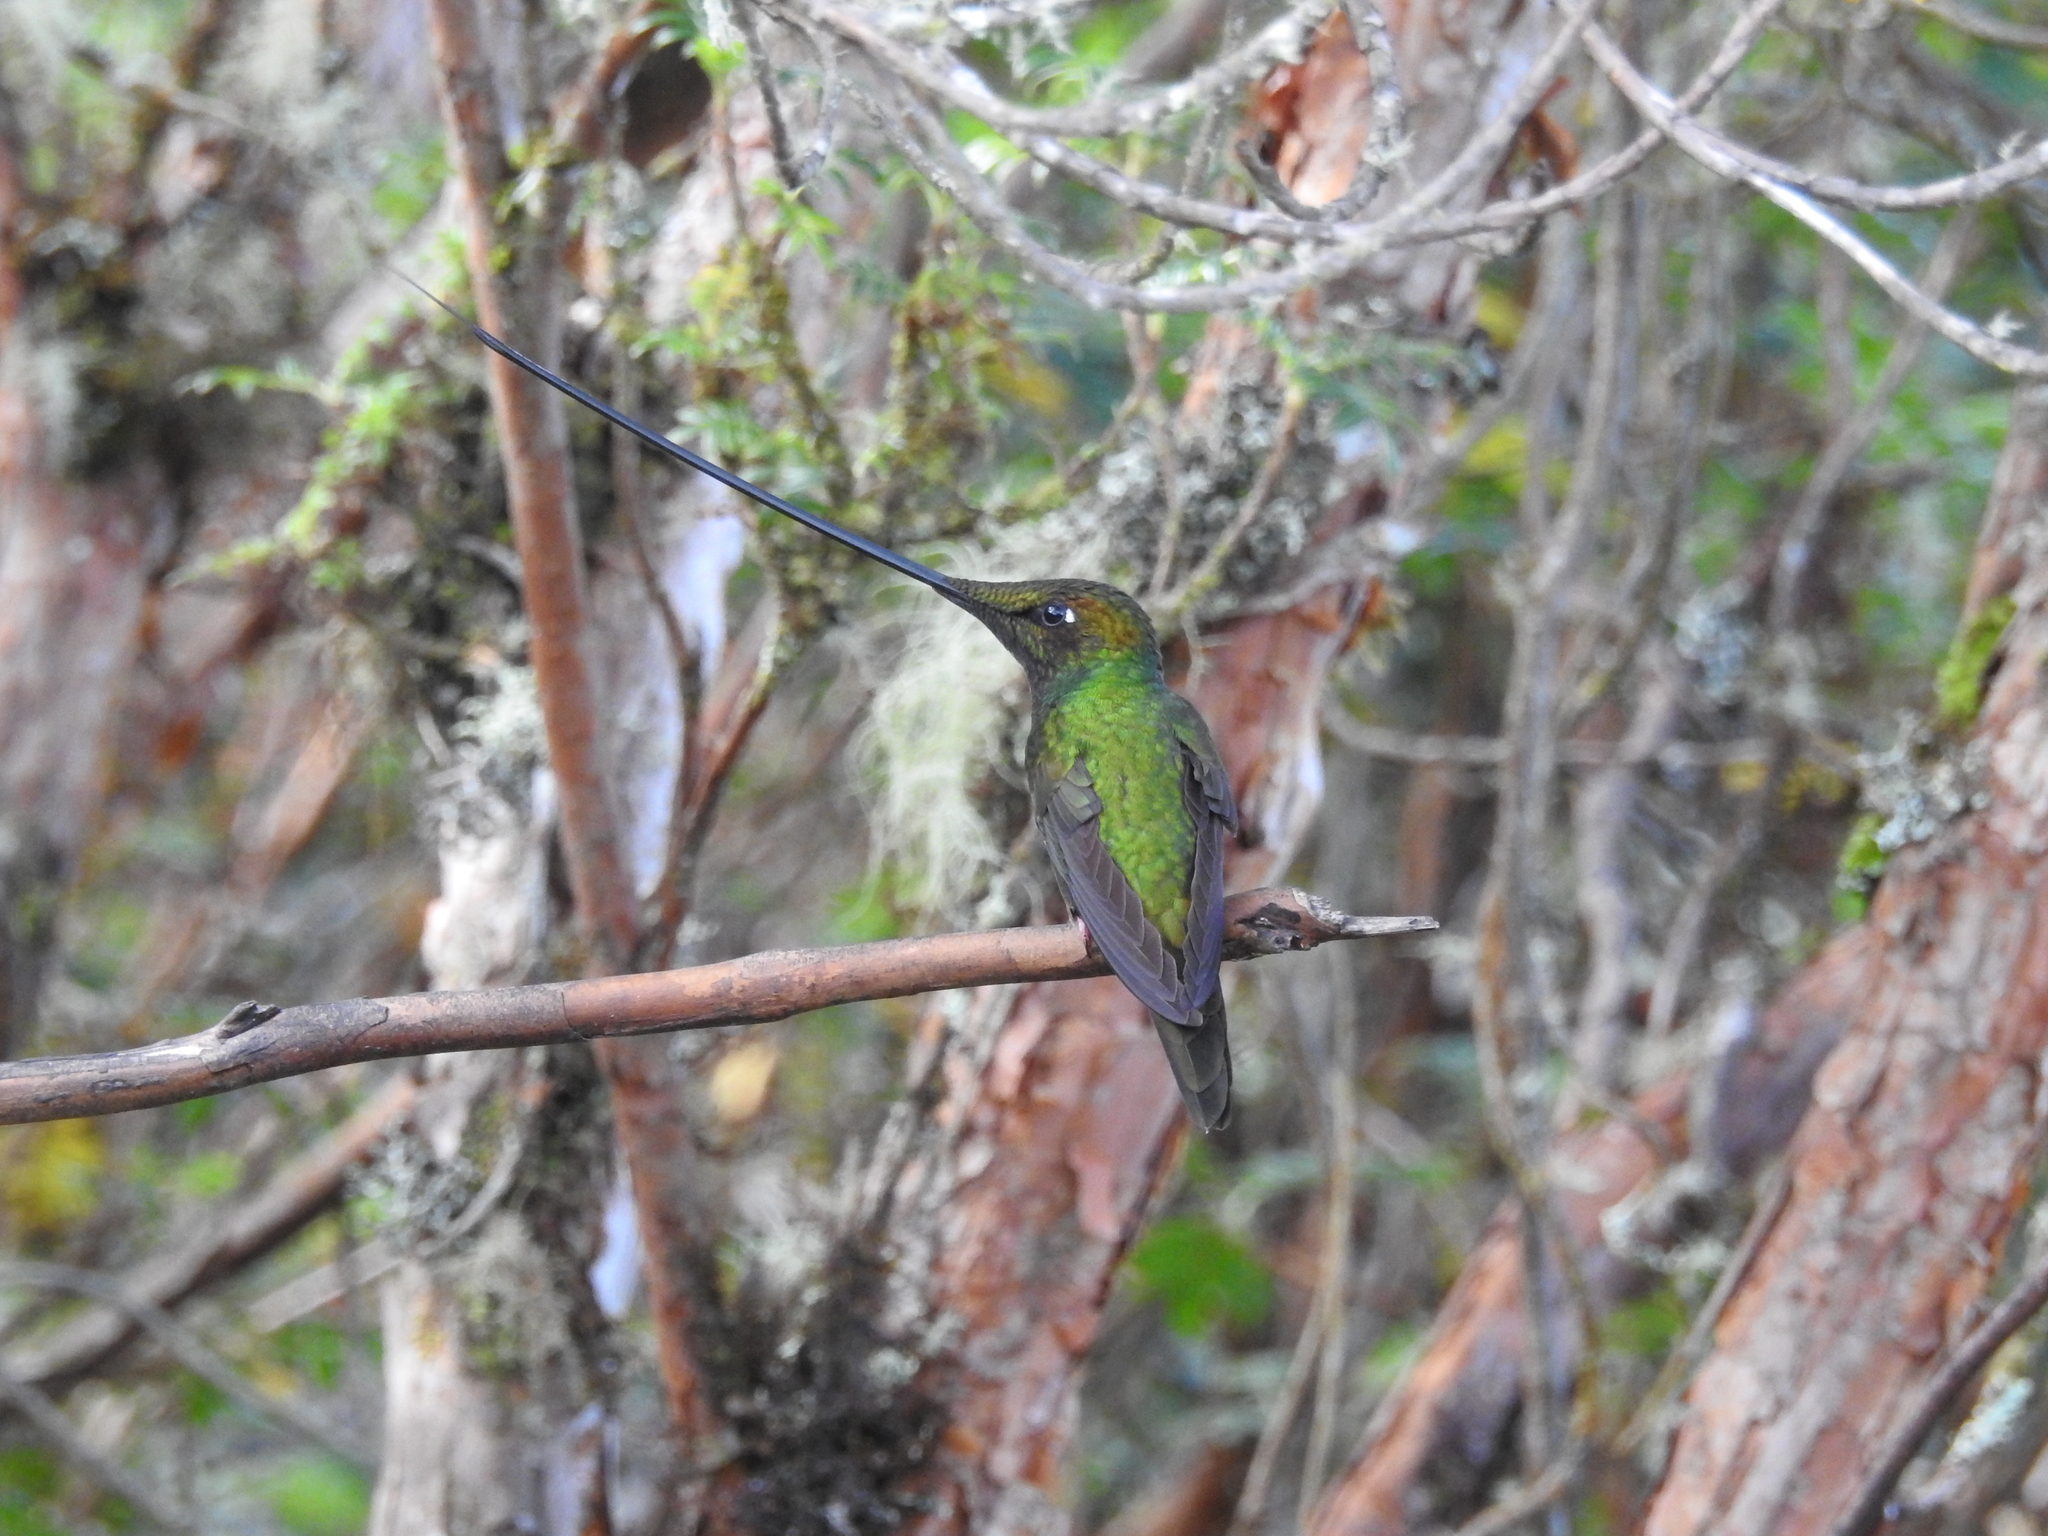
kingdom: Animalia
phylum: Chordata
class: Aves
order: Apodiformes
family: Trochilidae
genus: Ensifera
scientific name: Ensifera ensifera
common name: Sword-billed hummingbird
